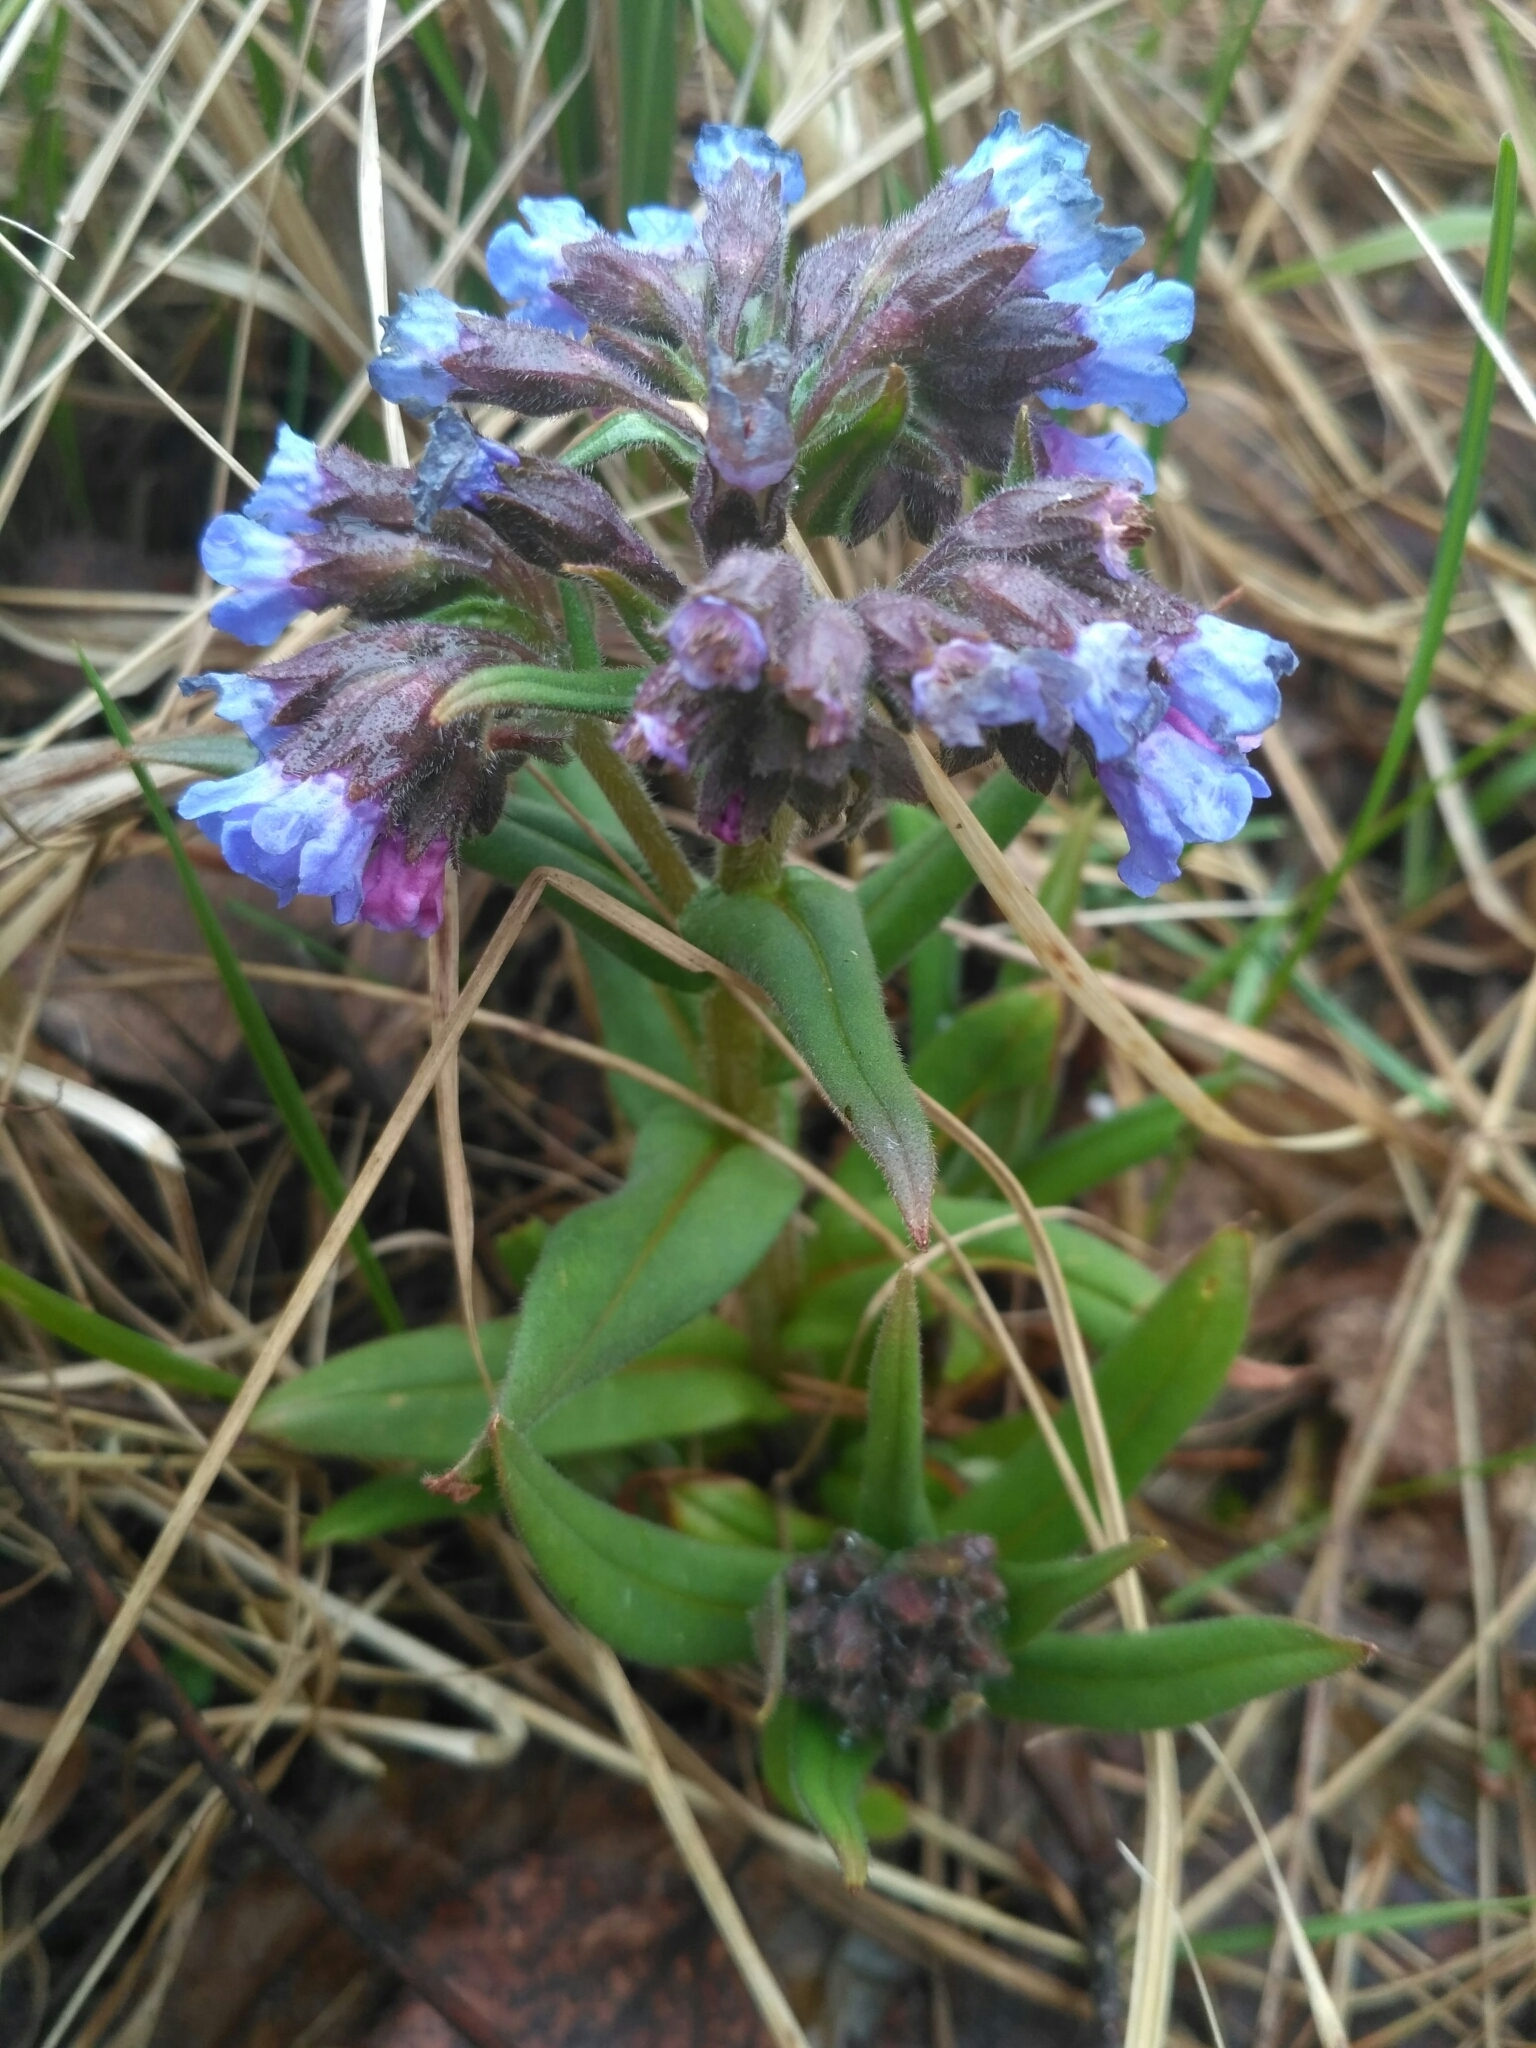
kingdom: Plantae
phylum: Tracheophyta
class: Magnoliopsida
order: Boraginales
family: Boraginaceae
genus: Pulmonaria
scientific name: Pulmonaria angustifolia
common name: Blue cowslip
